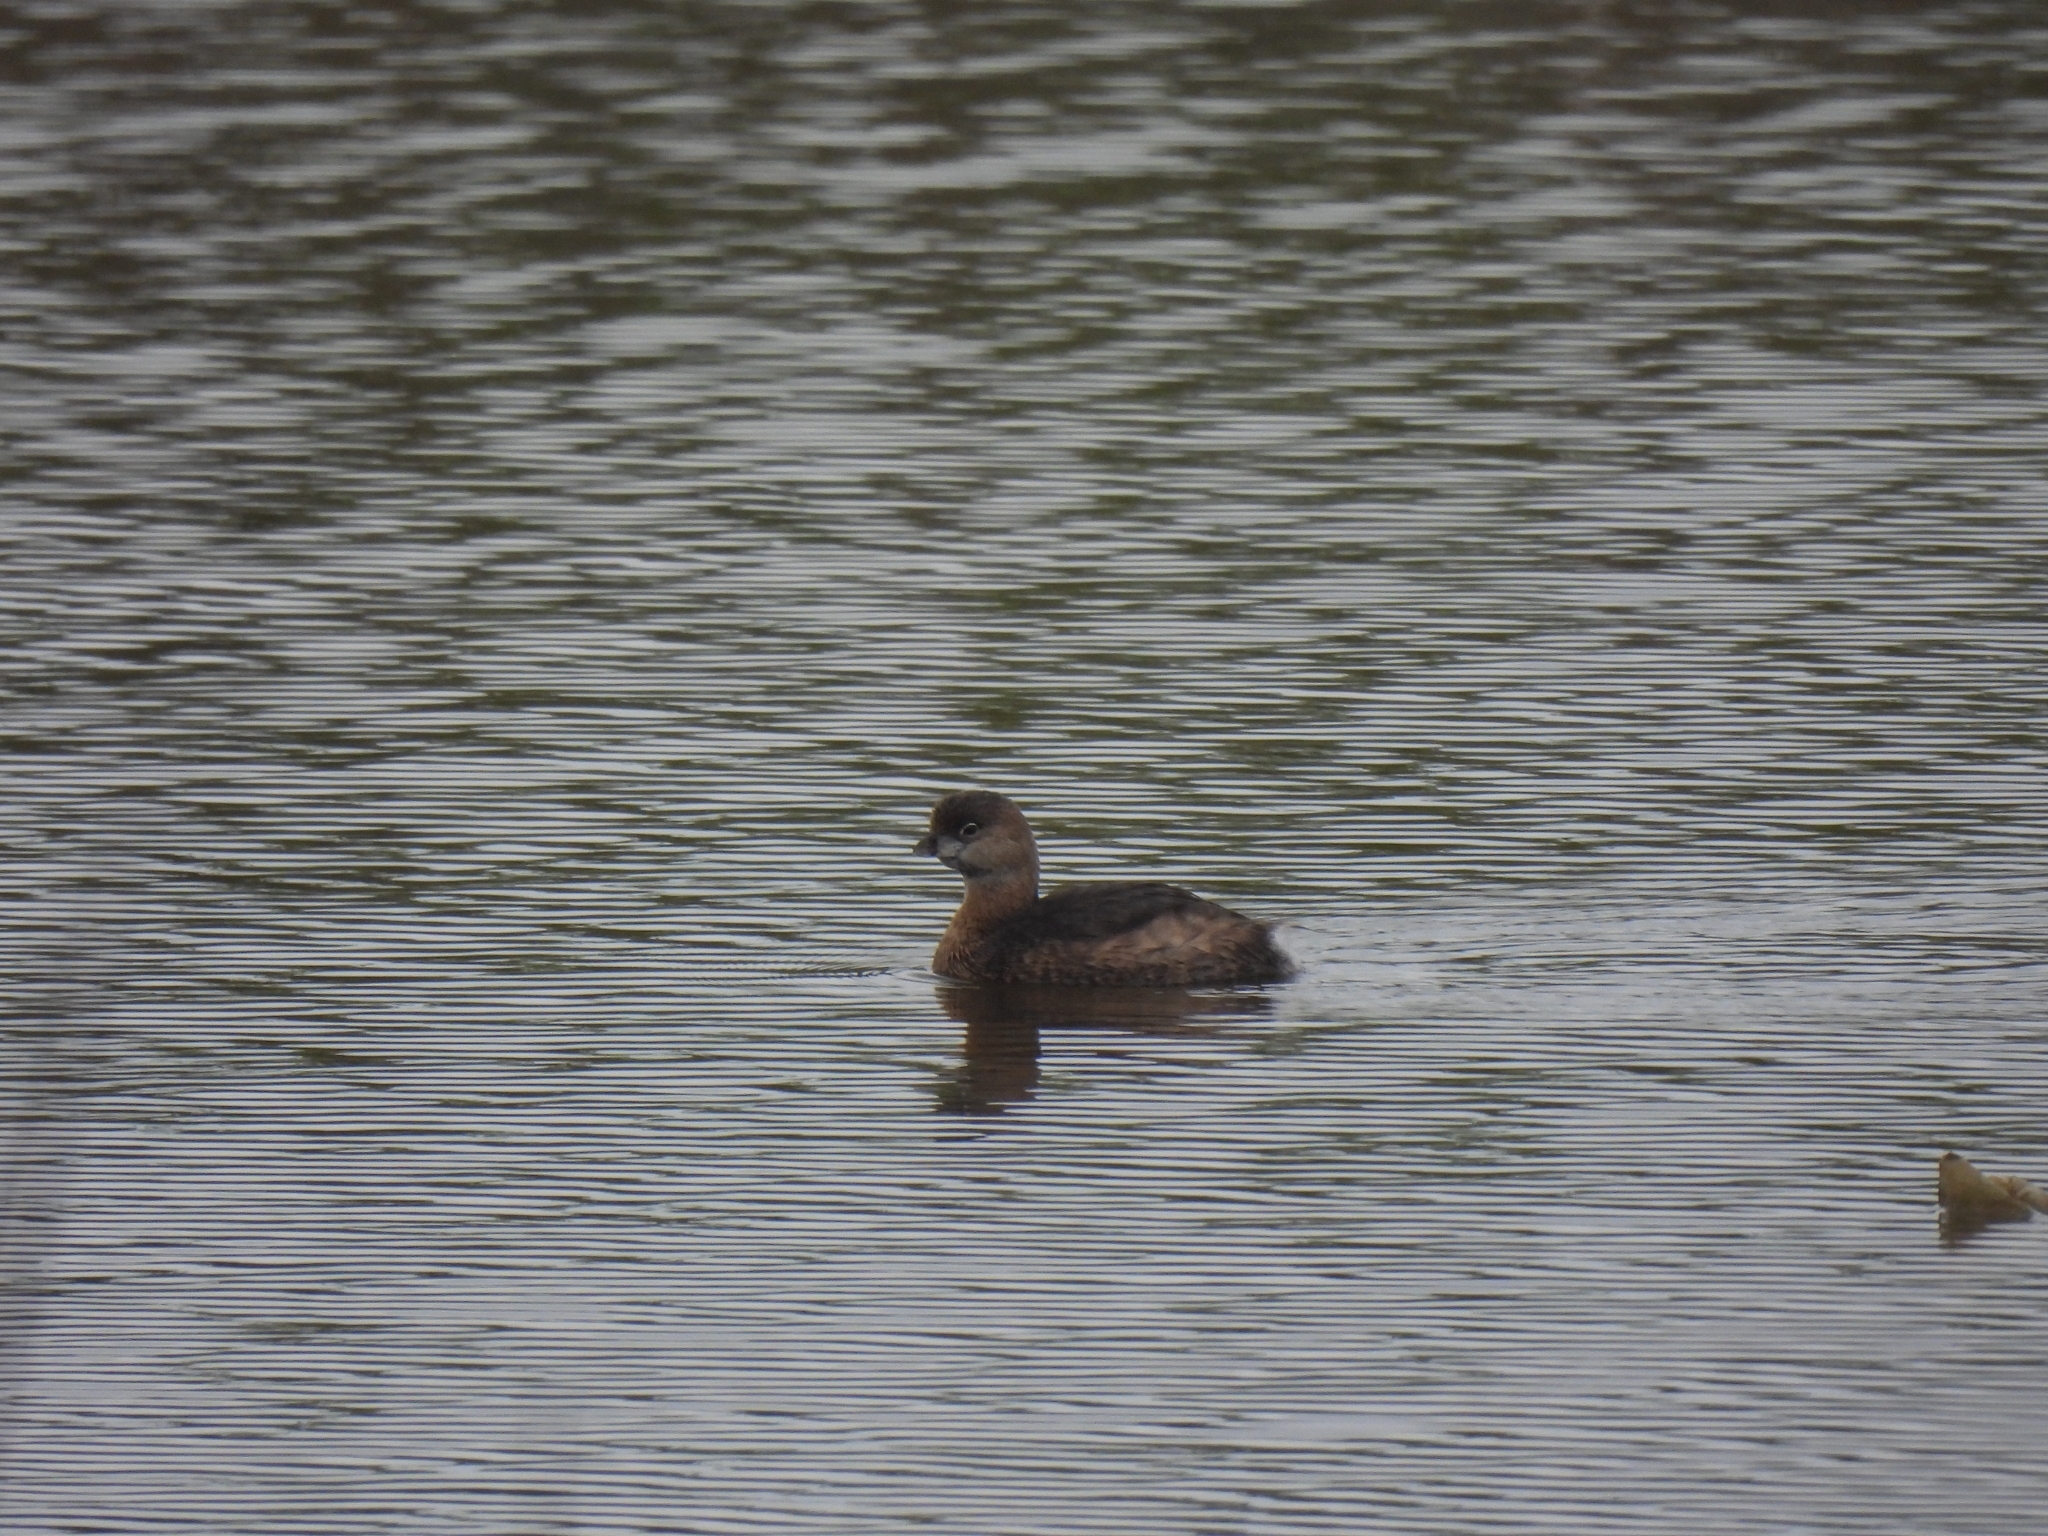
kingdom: Animalia
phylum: Chordata
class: Aves
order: Podicipediformes
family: Podicipedidae
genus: Podilymbus
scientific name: Podilymbus podiceps
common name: Pied-billed grebe
